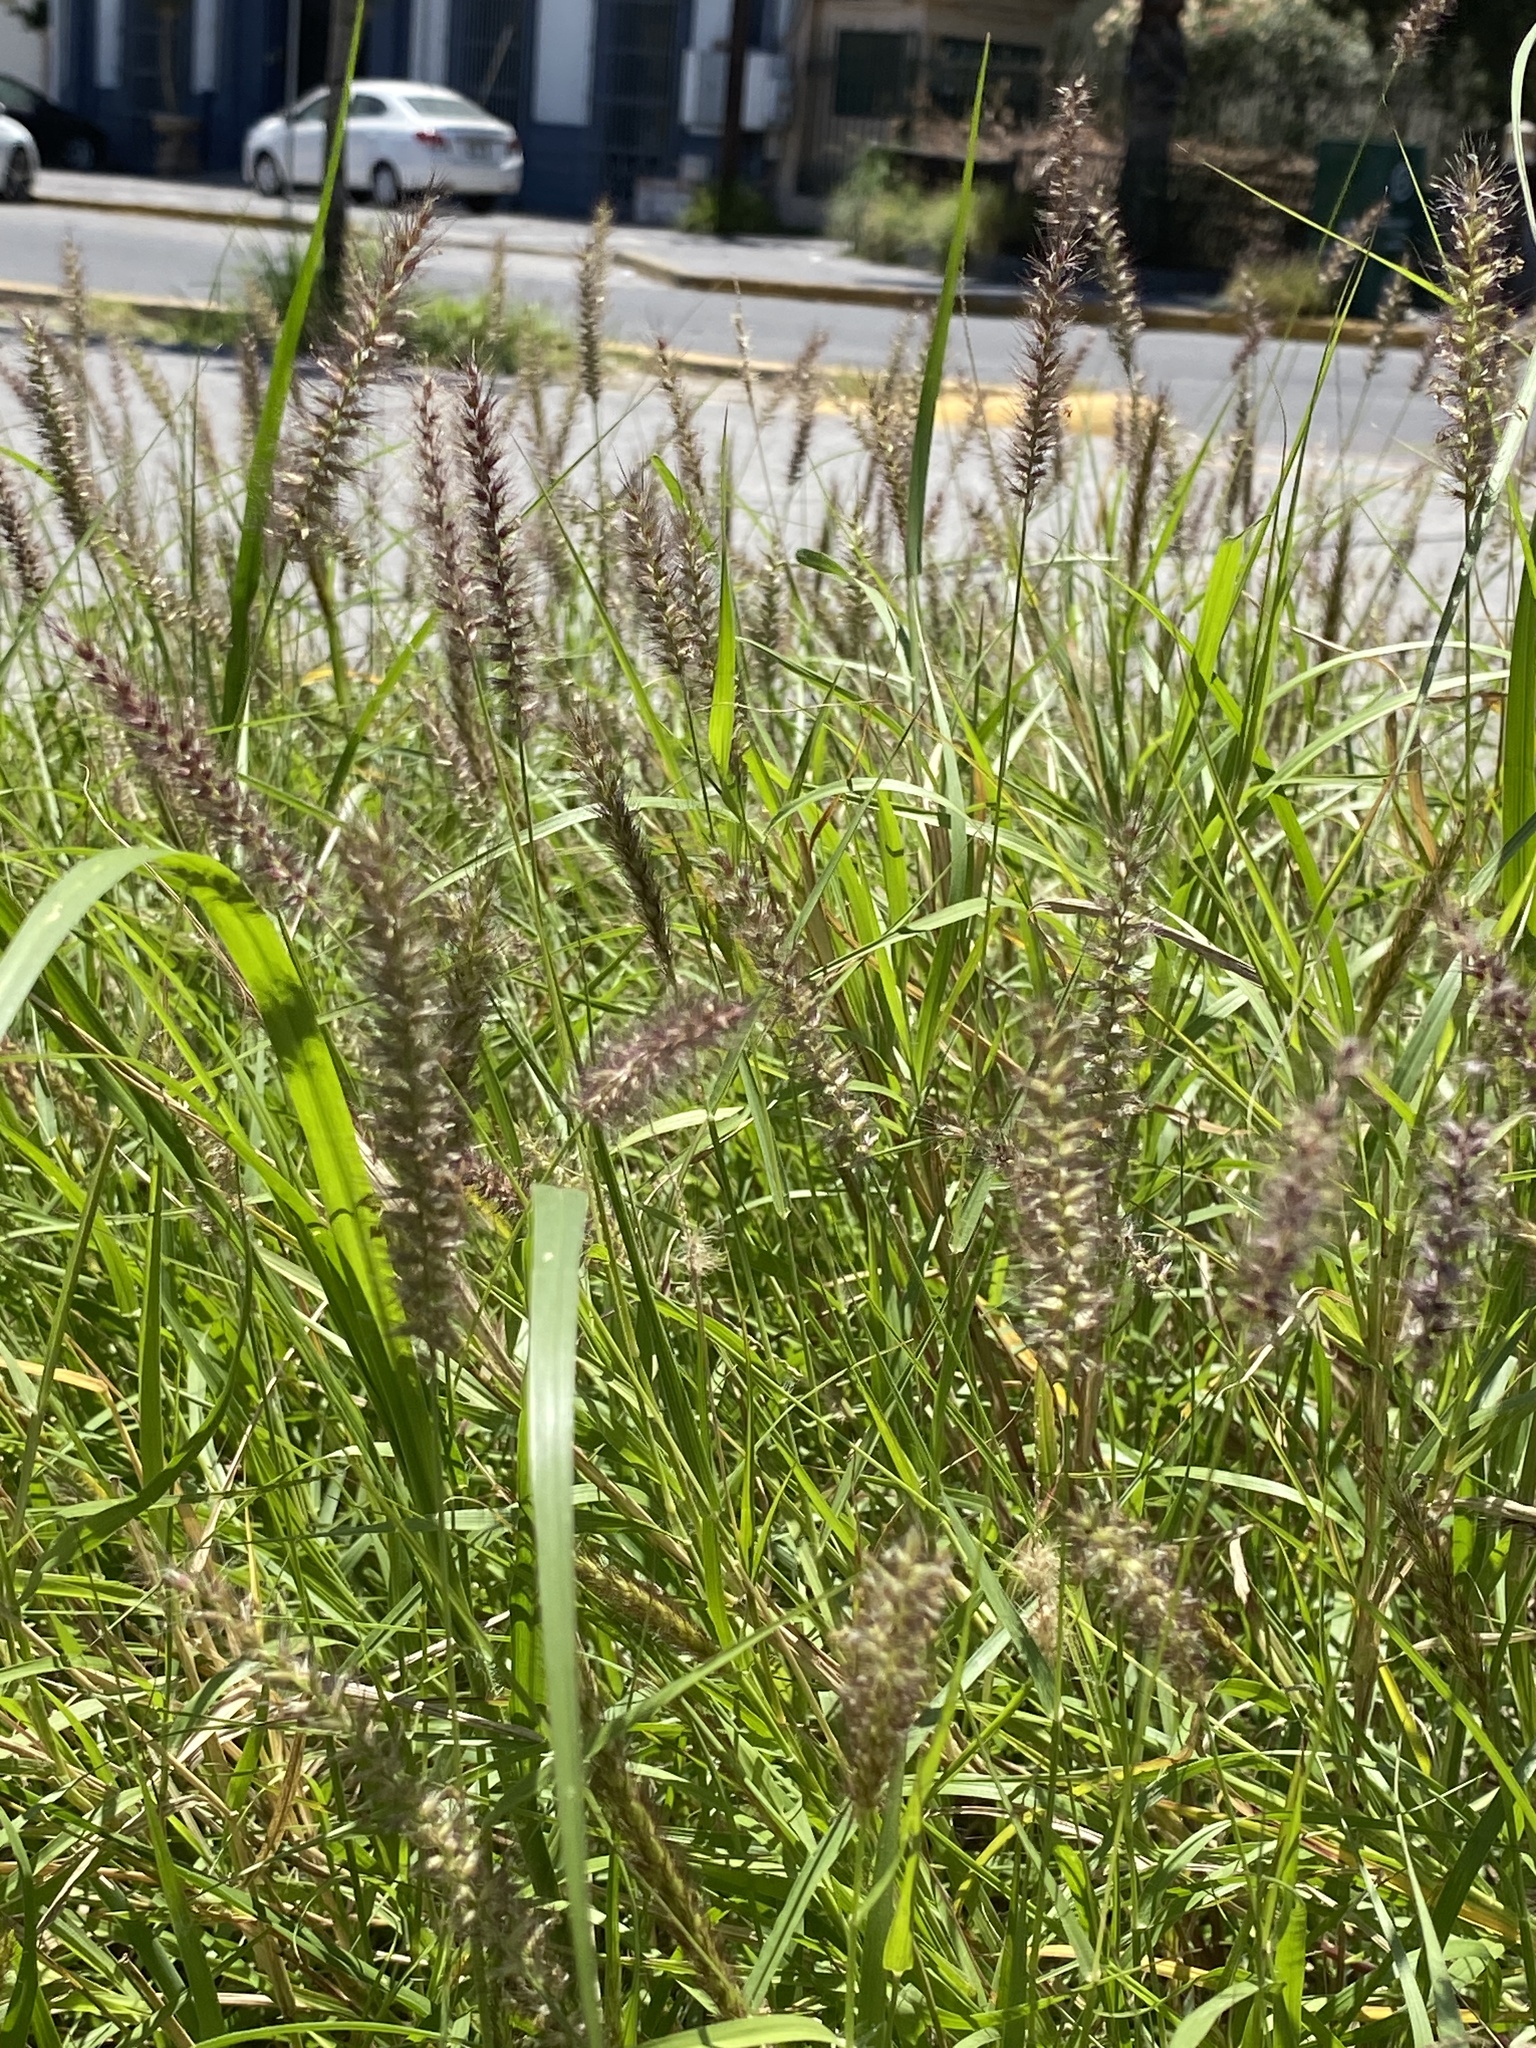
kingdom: Plantae
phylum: Tracheophyta
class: Liliopsida
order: Poales
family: Poaceae
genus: Cenchrus
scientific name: Cenchrus ciliaris
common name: Buffelgrass
